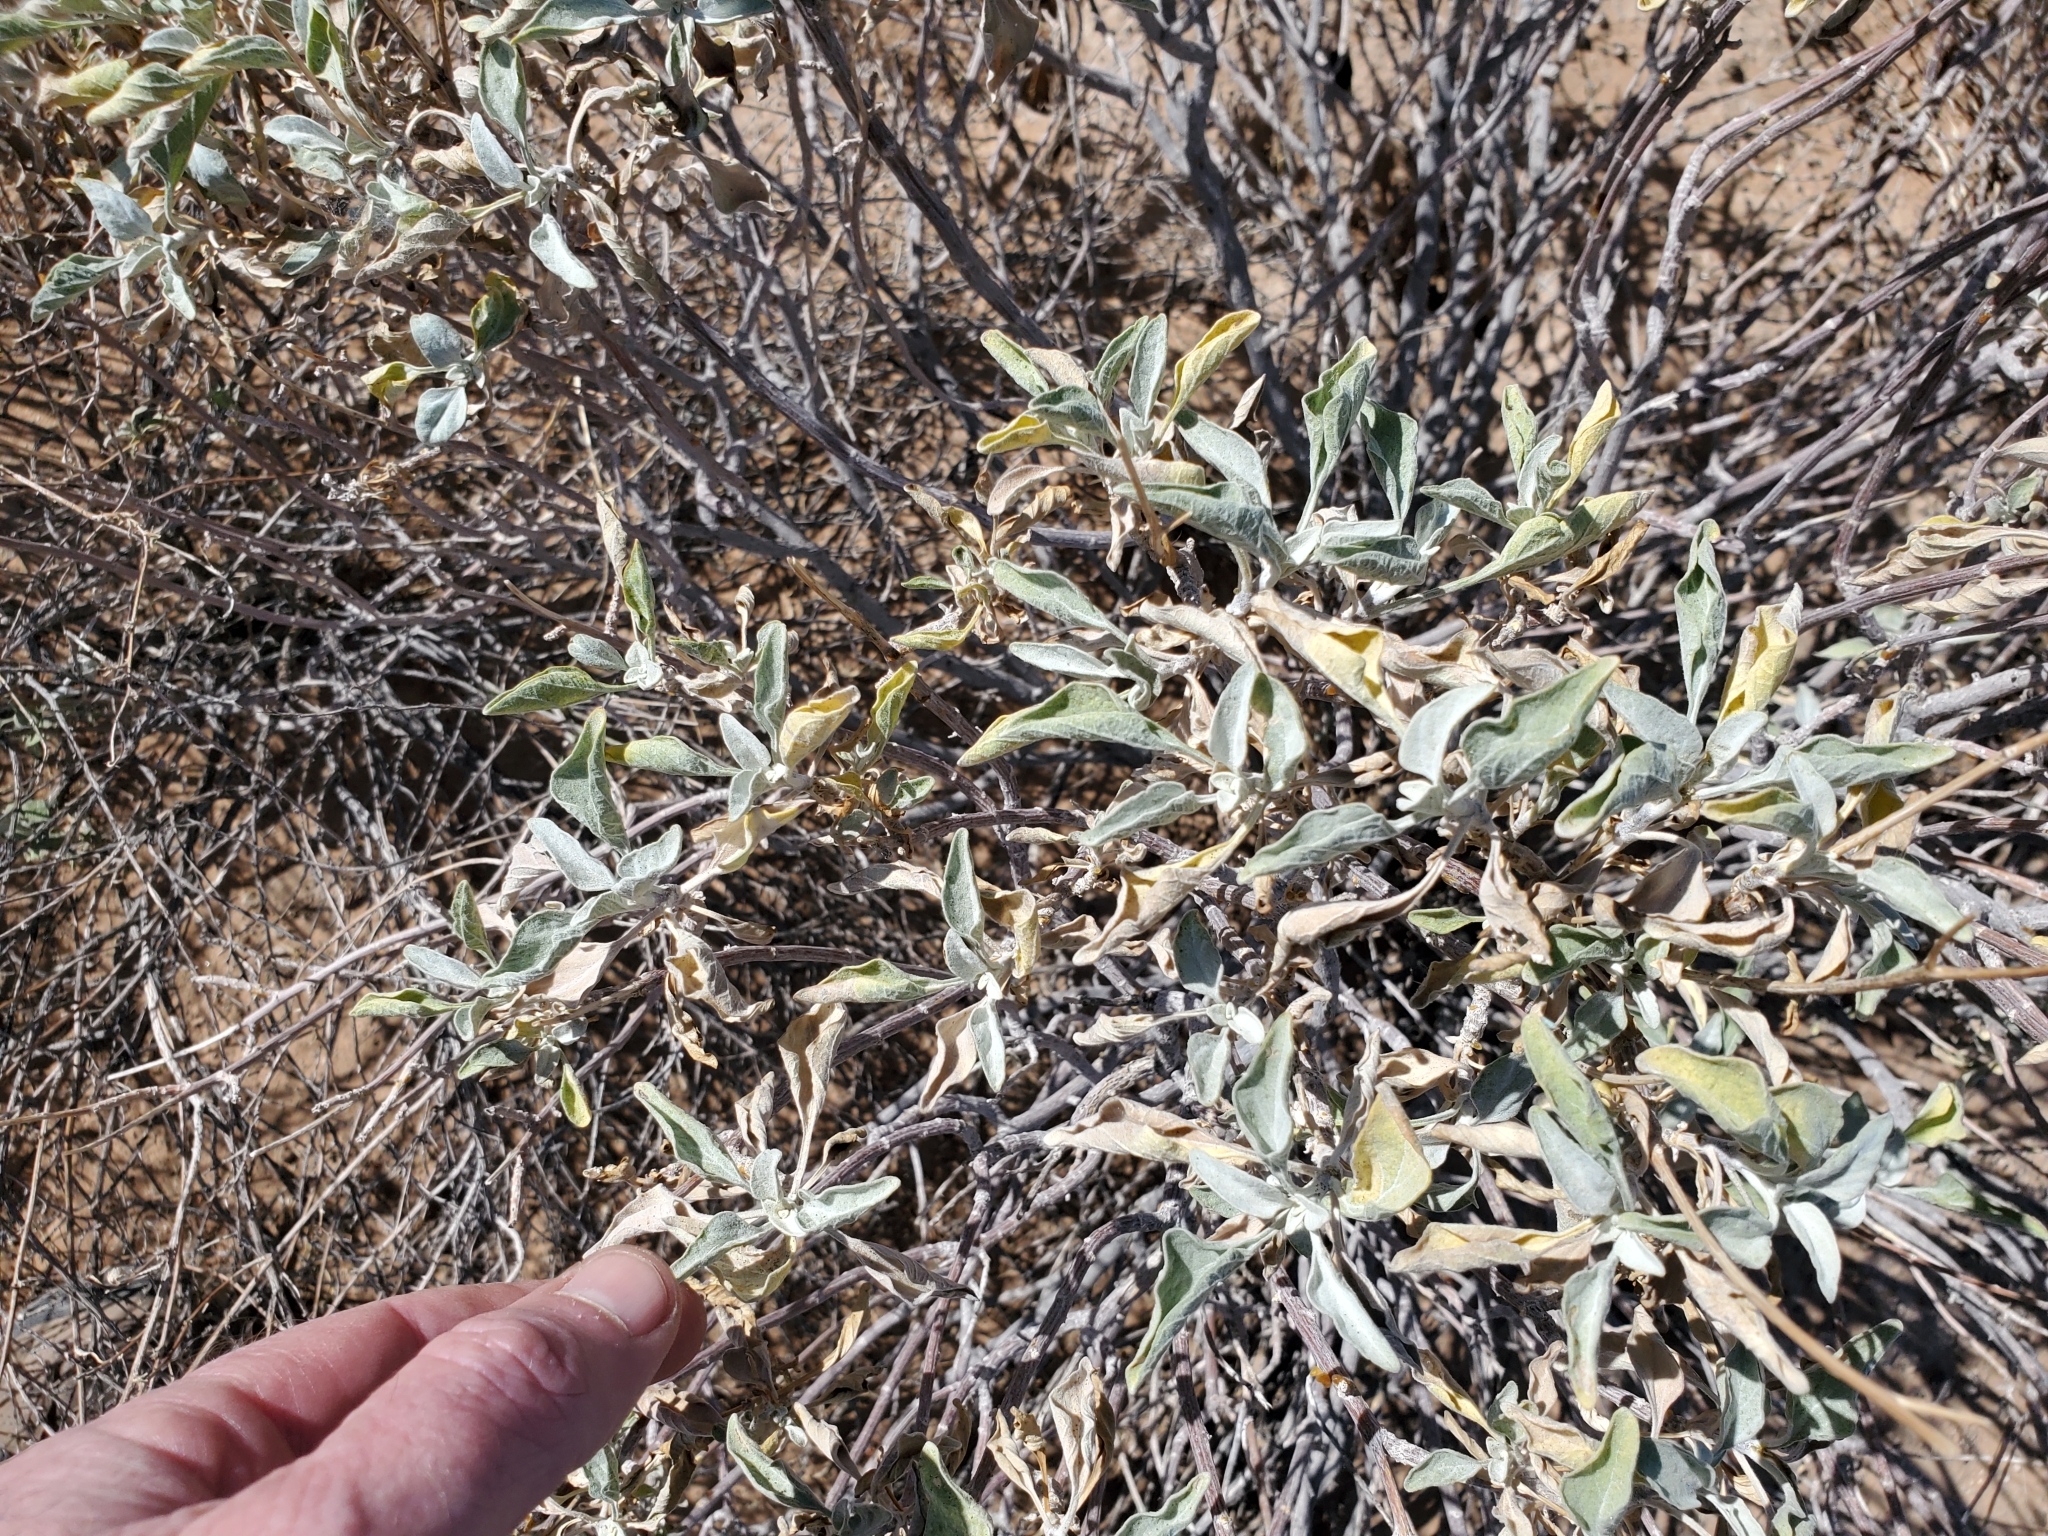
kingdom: Plantae
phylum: Tracheophyta
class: Magnoliopsida
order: Asterales
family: Asteraceae
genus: Ambrosia
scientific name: Ambrosia deltoidea
